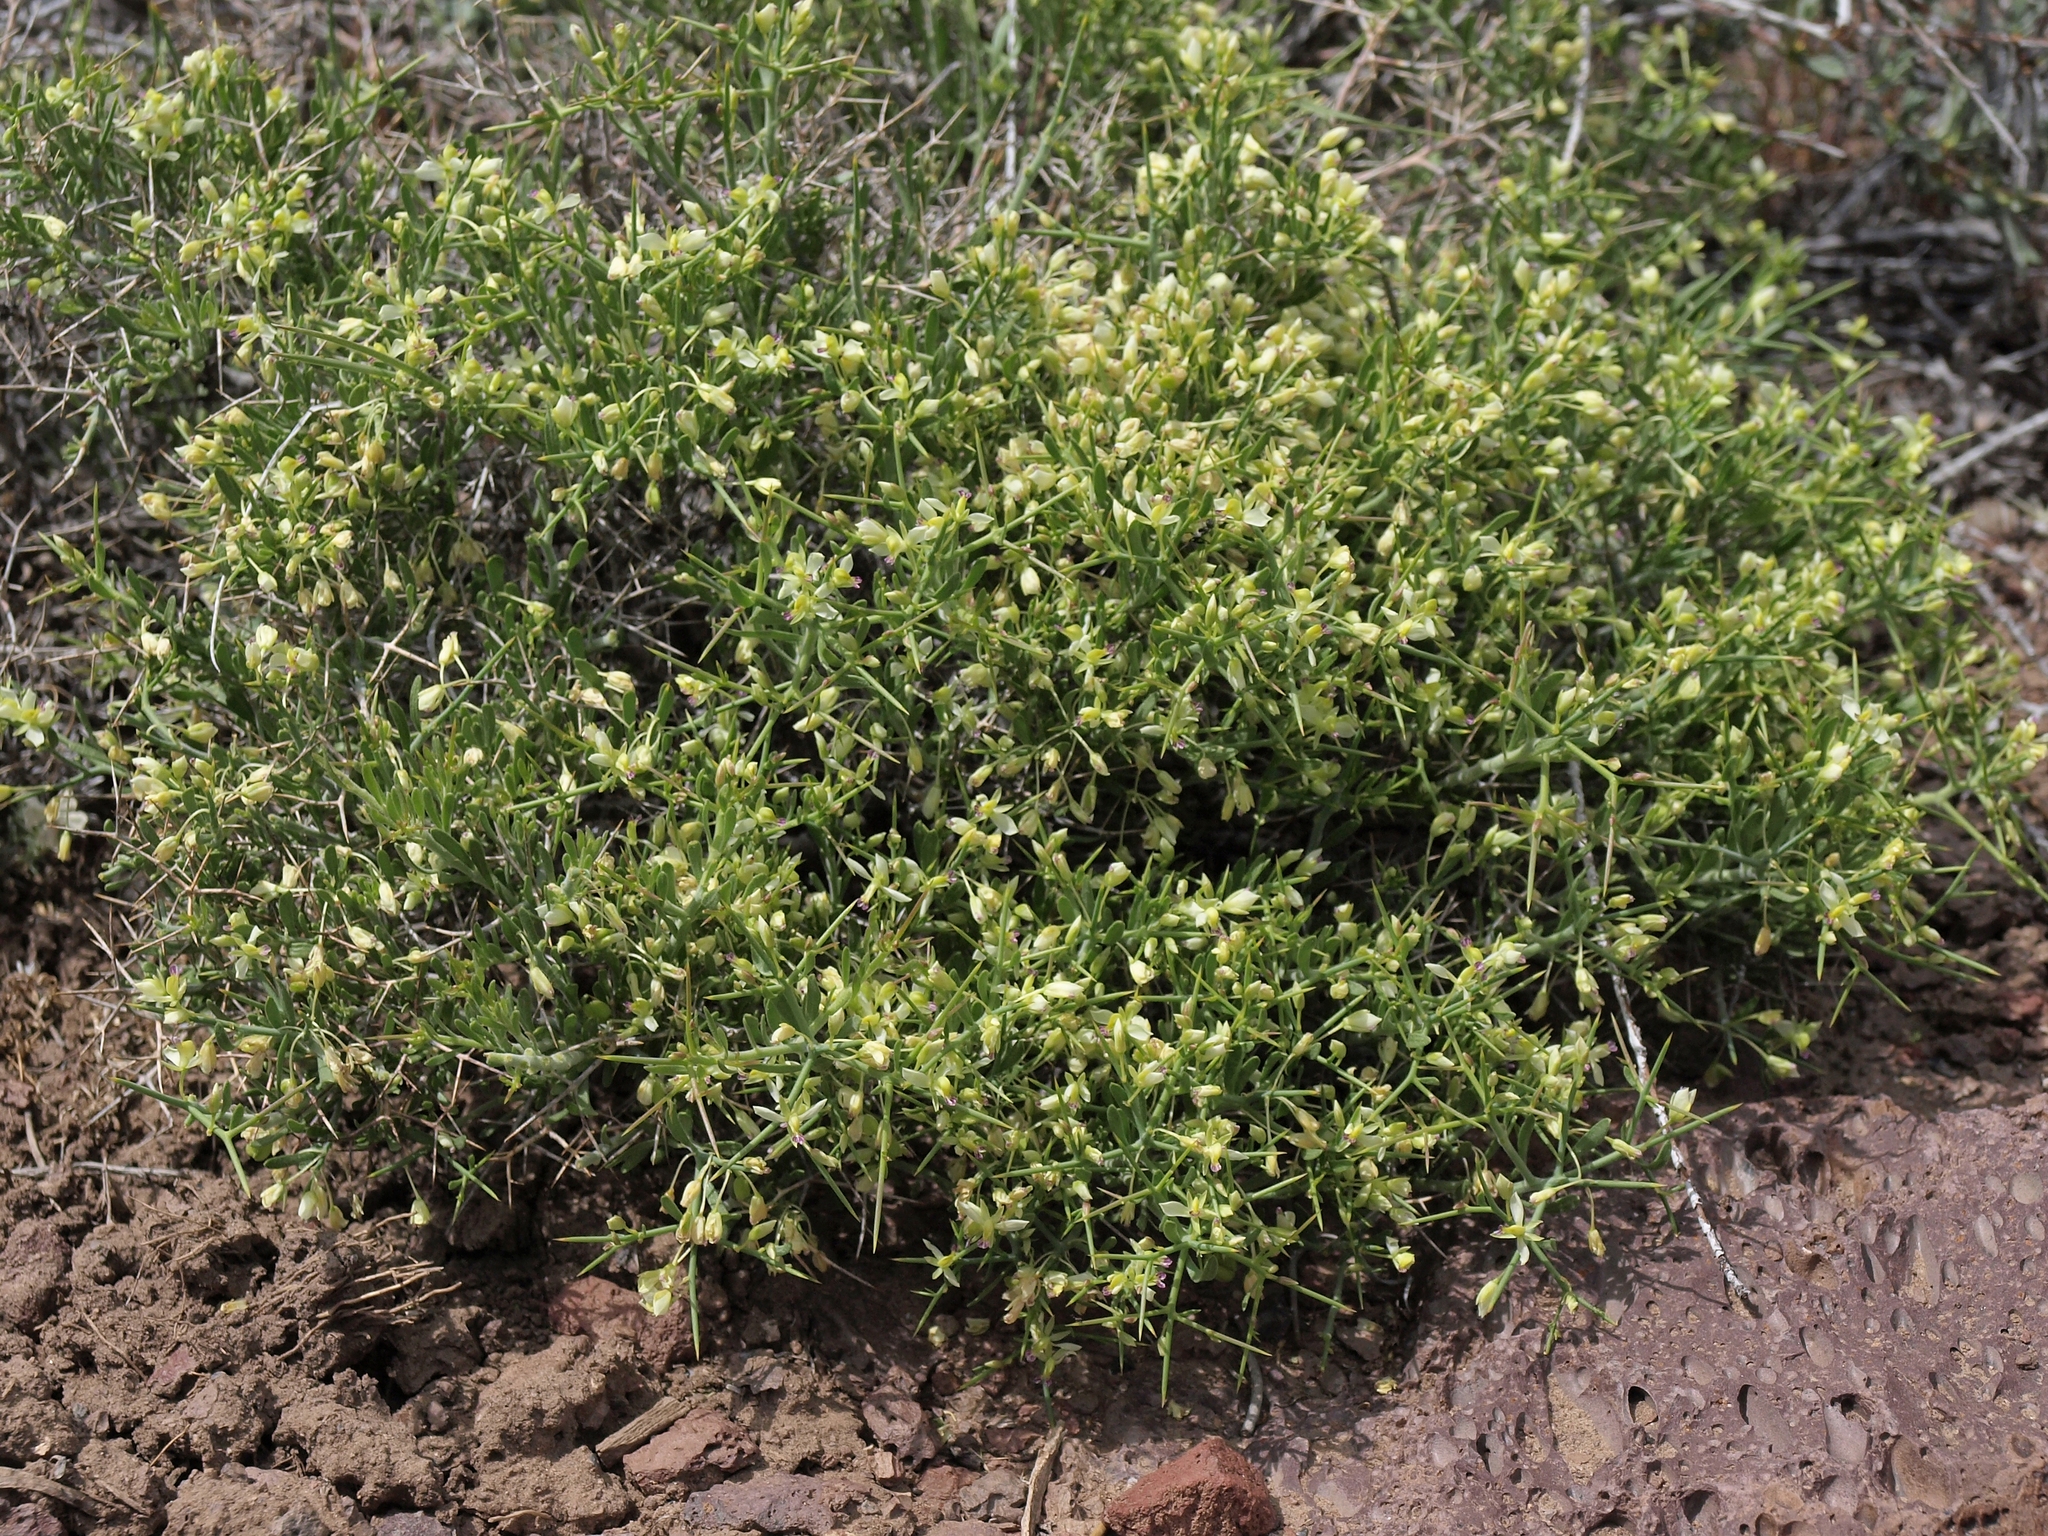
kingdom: Plantae
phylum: Tracheophyta
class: Magnoliopsida
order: Fabales
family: Polygalaceae
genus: Rhinotropis
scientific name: Rhinotropis intermontana
